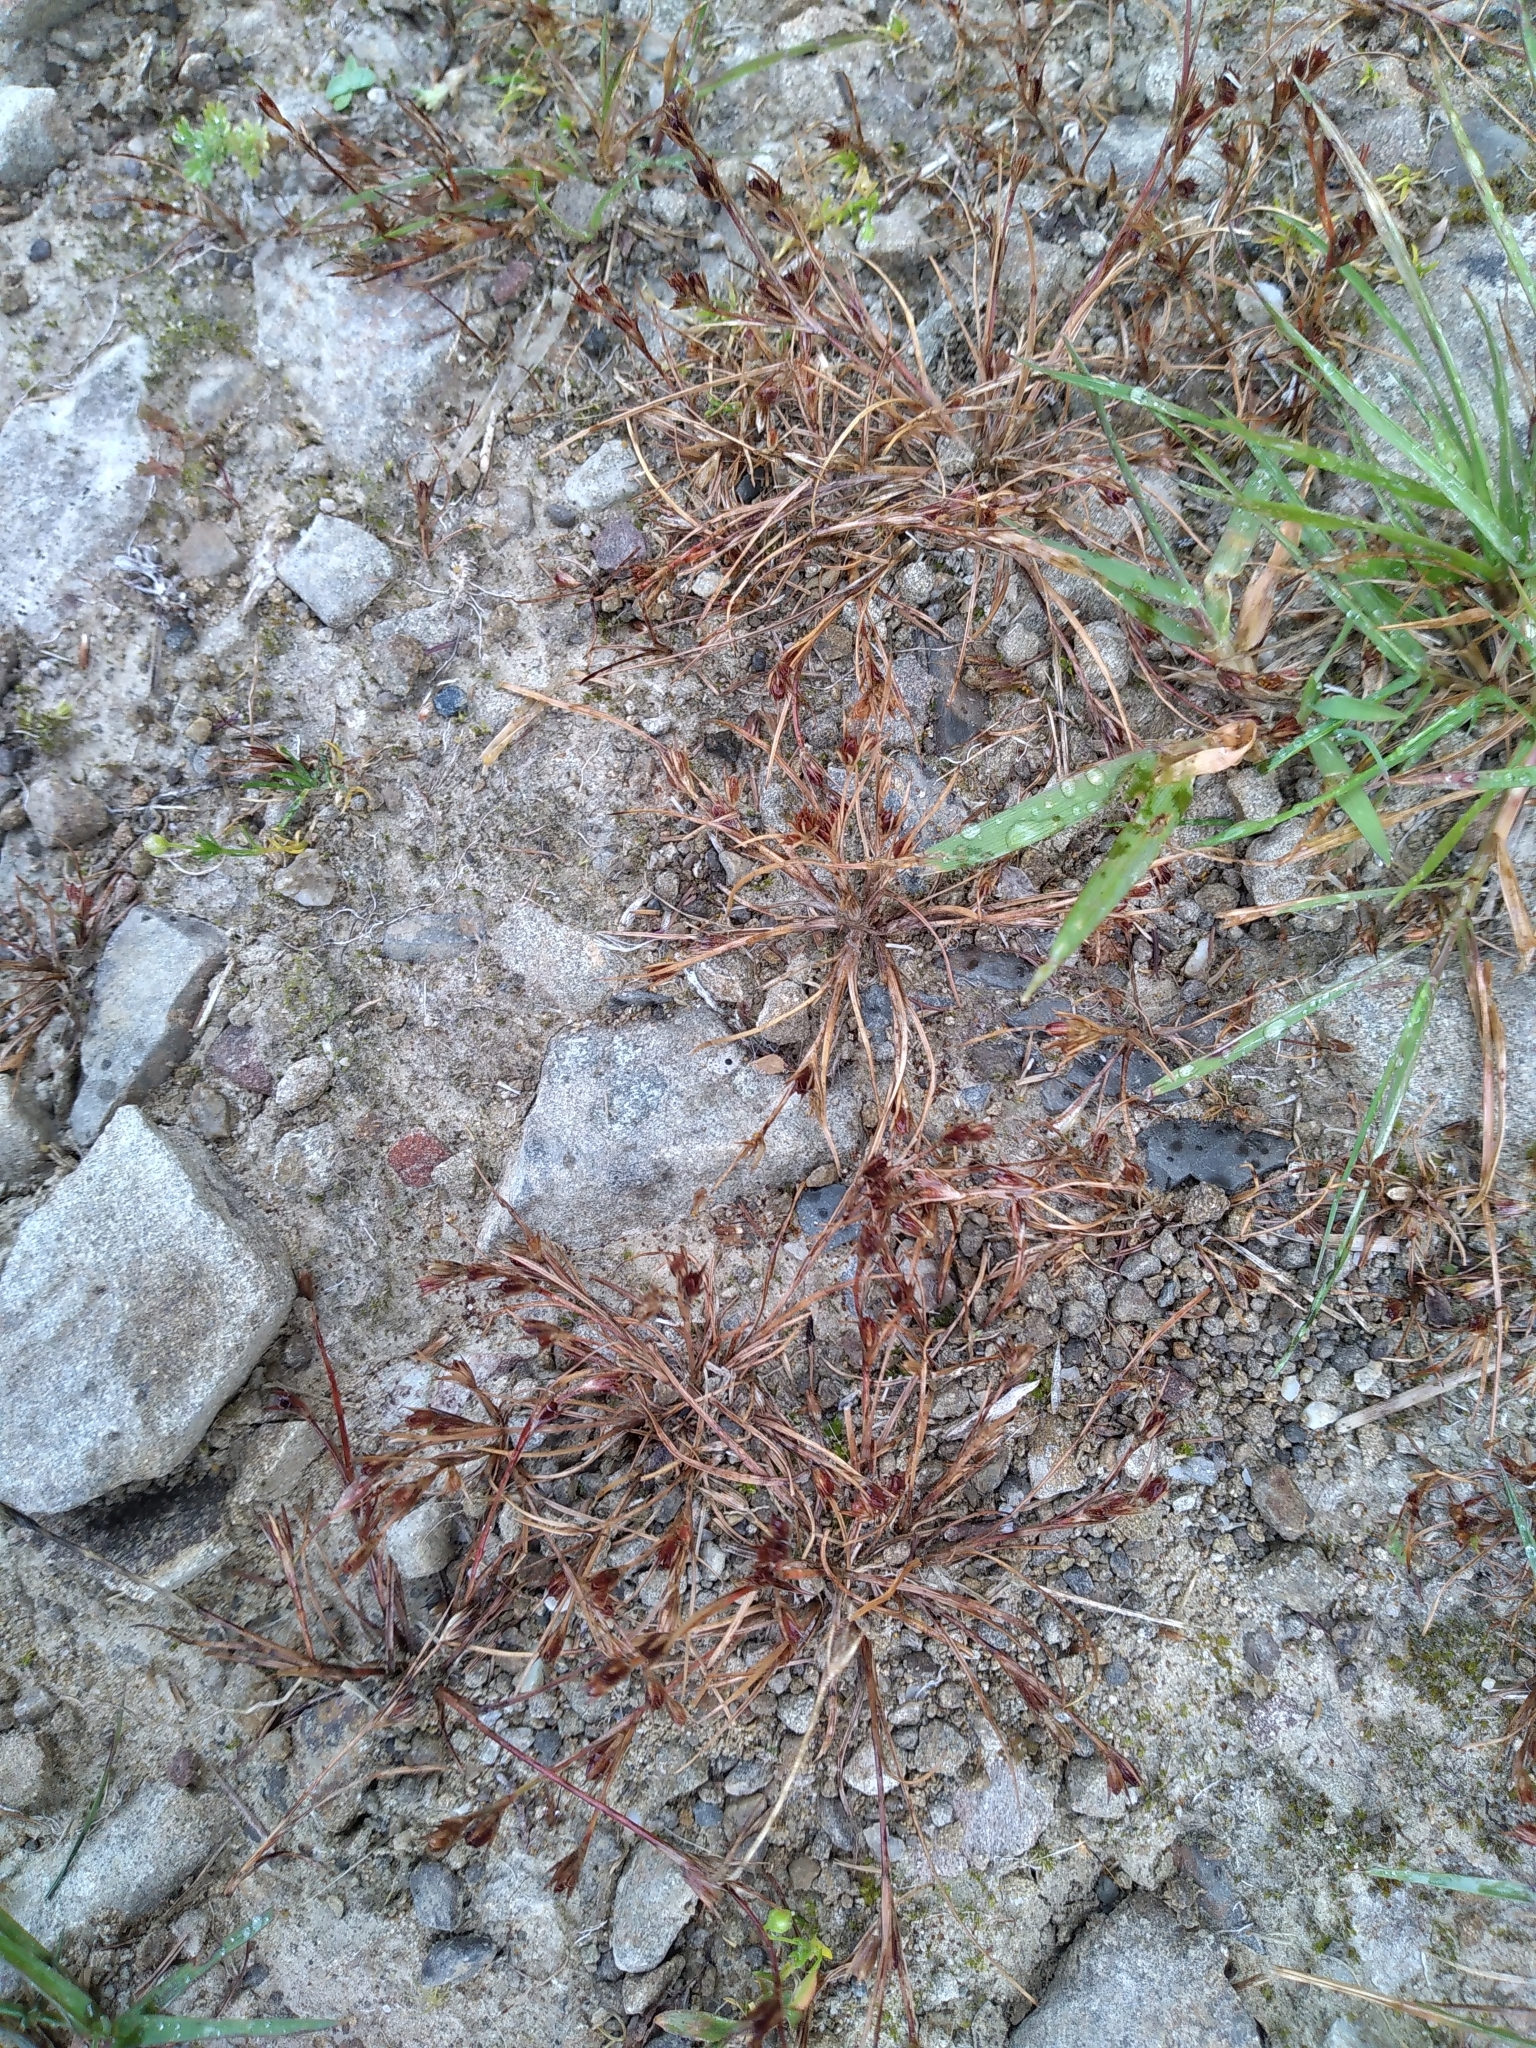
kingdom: Plantae
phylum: Tracheophyta
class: Liliopsida
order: Poales
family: Juncaceae
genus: Juncus
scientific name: Juncus bufonius
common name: Toad rush
